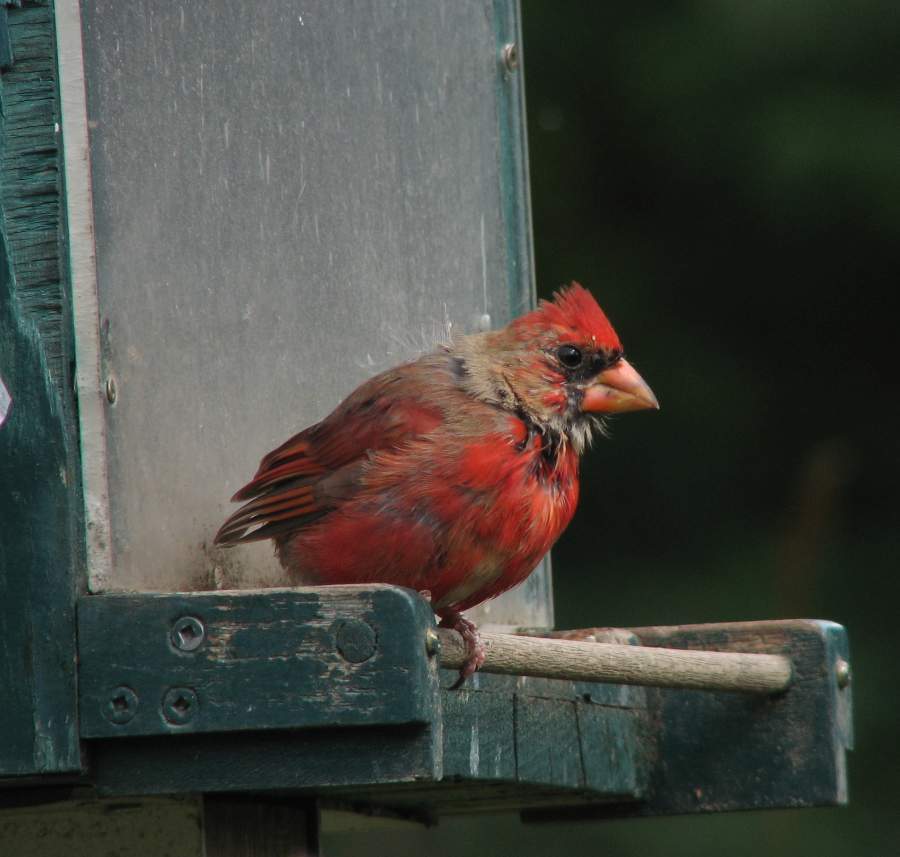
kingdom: Animalia
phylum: Chordata
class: Aves
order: Passeriformes
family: Cardinalidae
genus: Cardinalis
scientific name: Cardinalis cardinalis
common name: Northern cardinal
